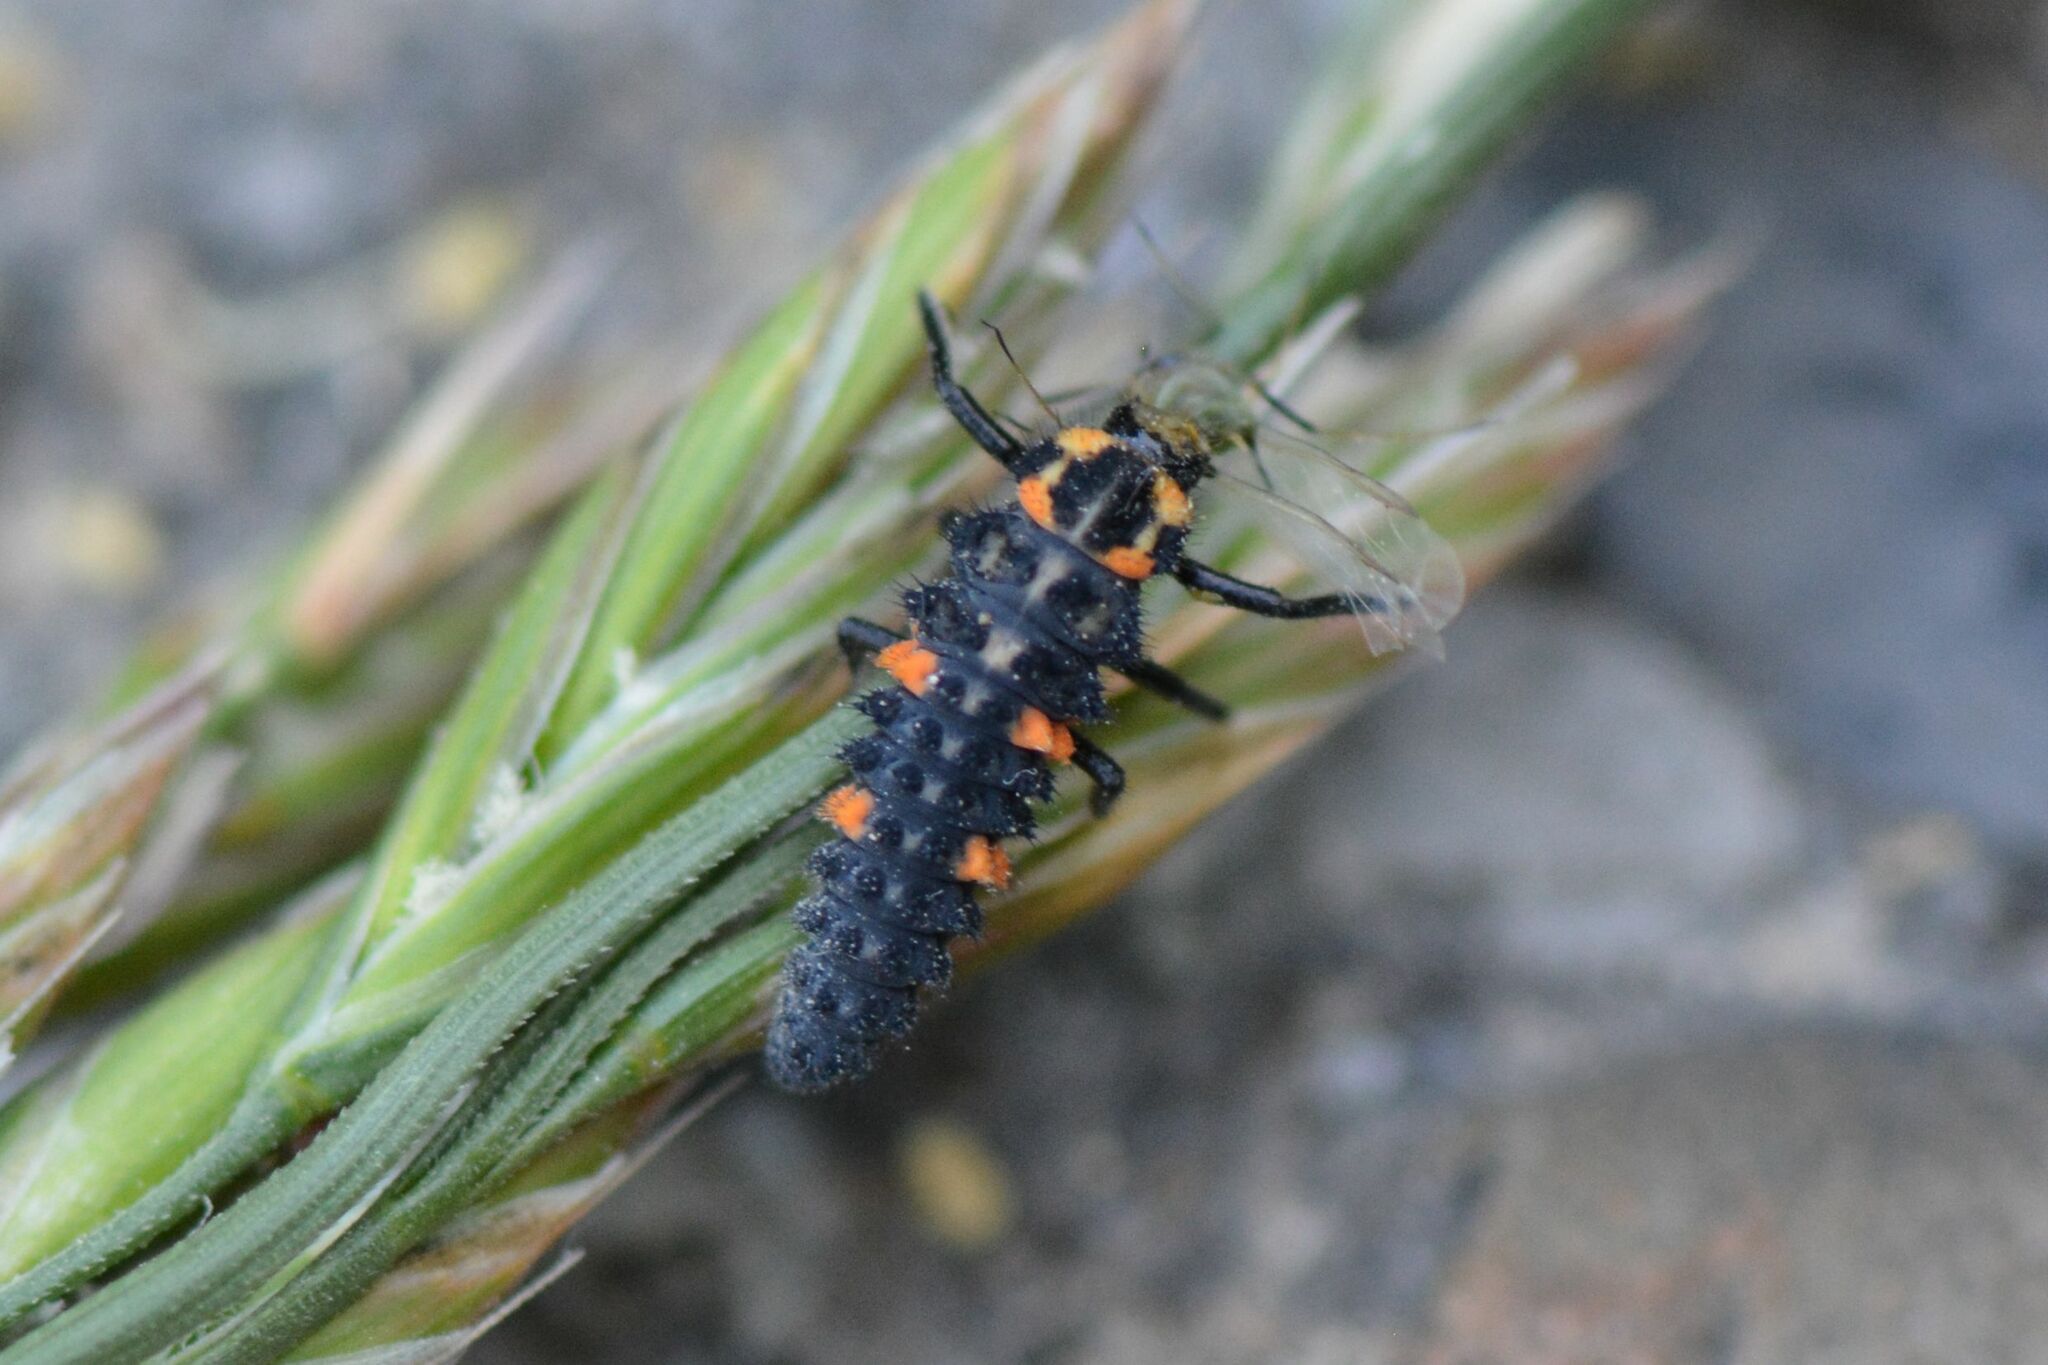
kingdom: Animalia
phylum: Arthropoda
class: Insecta
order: Coleoptera
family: Coccinellidae
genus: Coccinella
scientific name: Coccinella septempunctata
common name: Sevenspotted lady beetle
